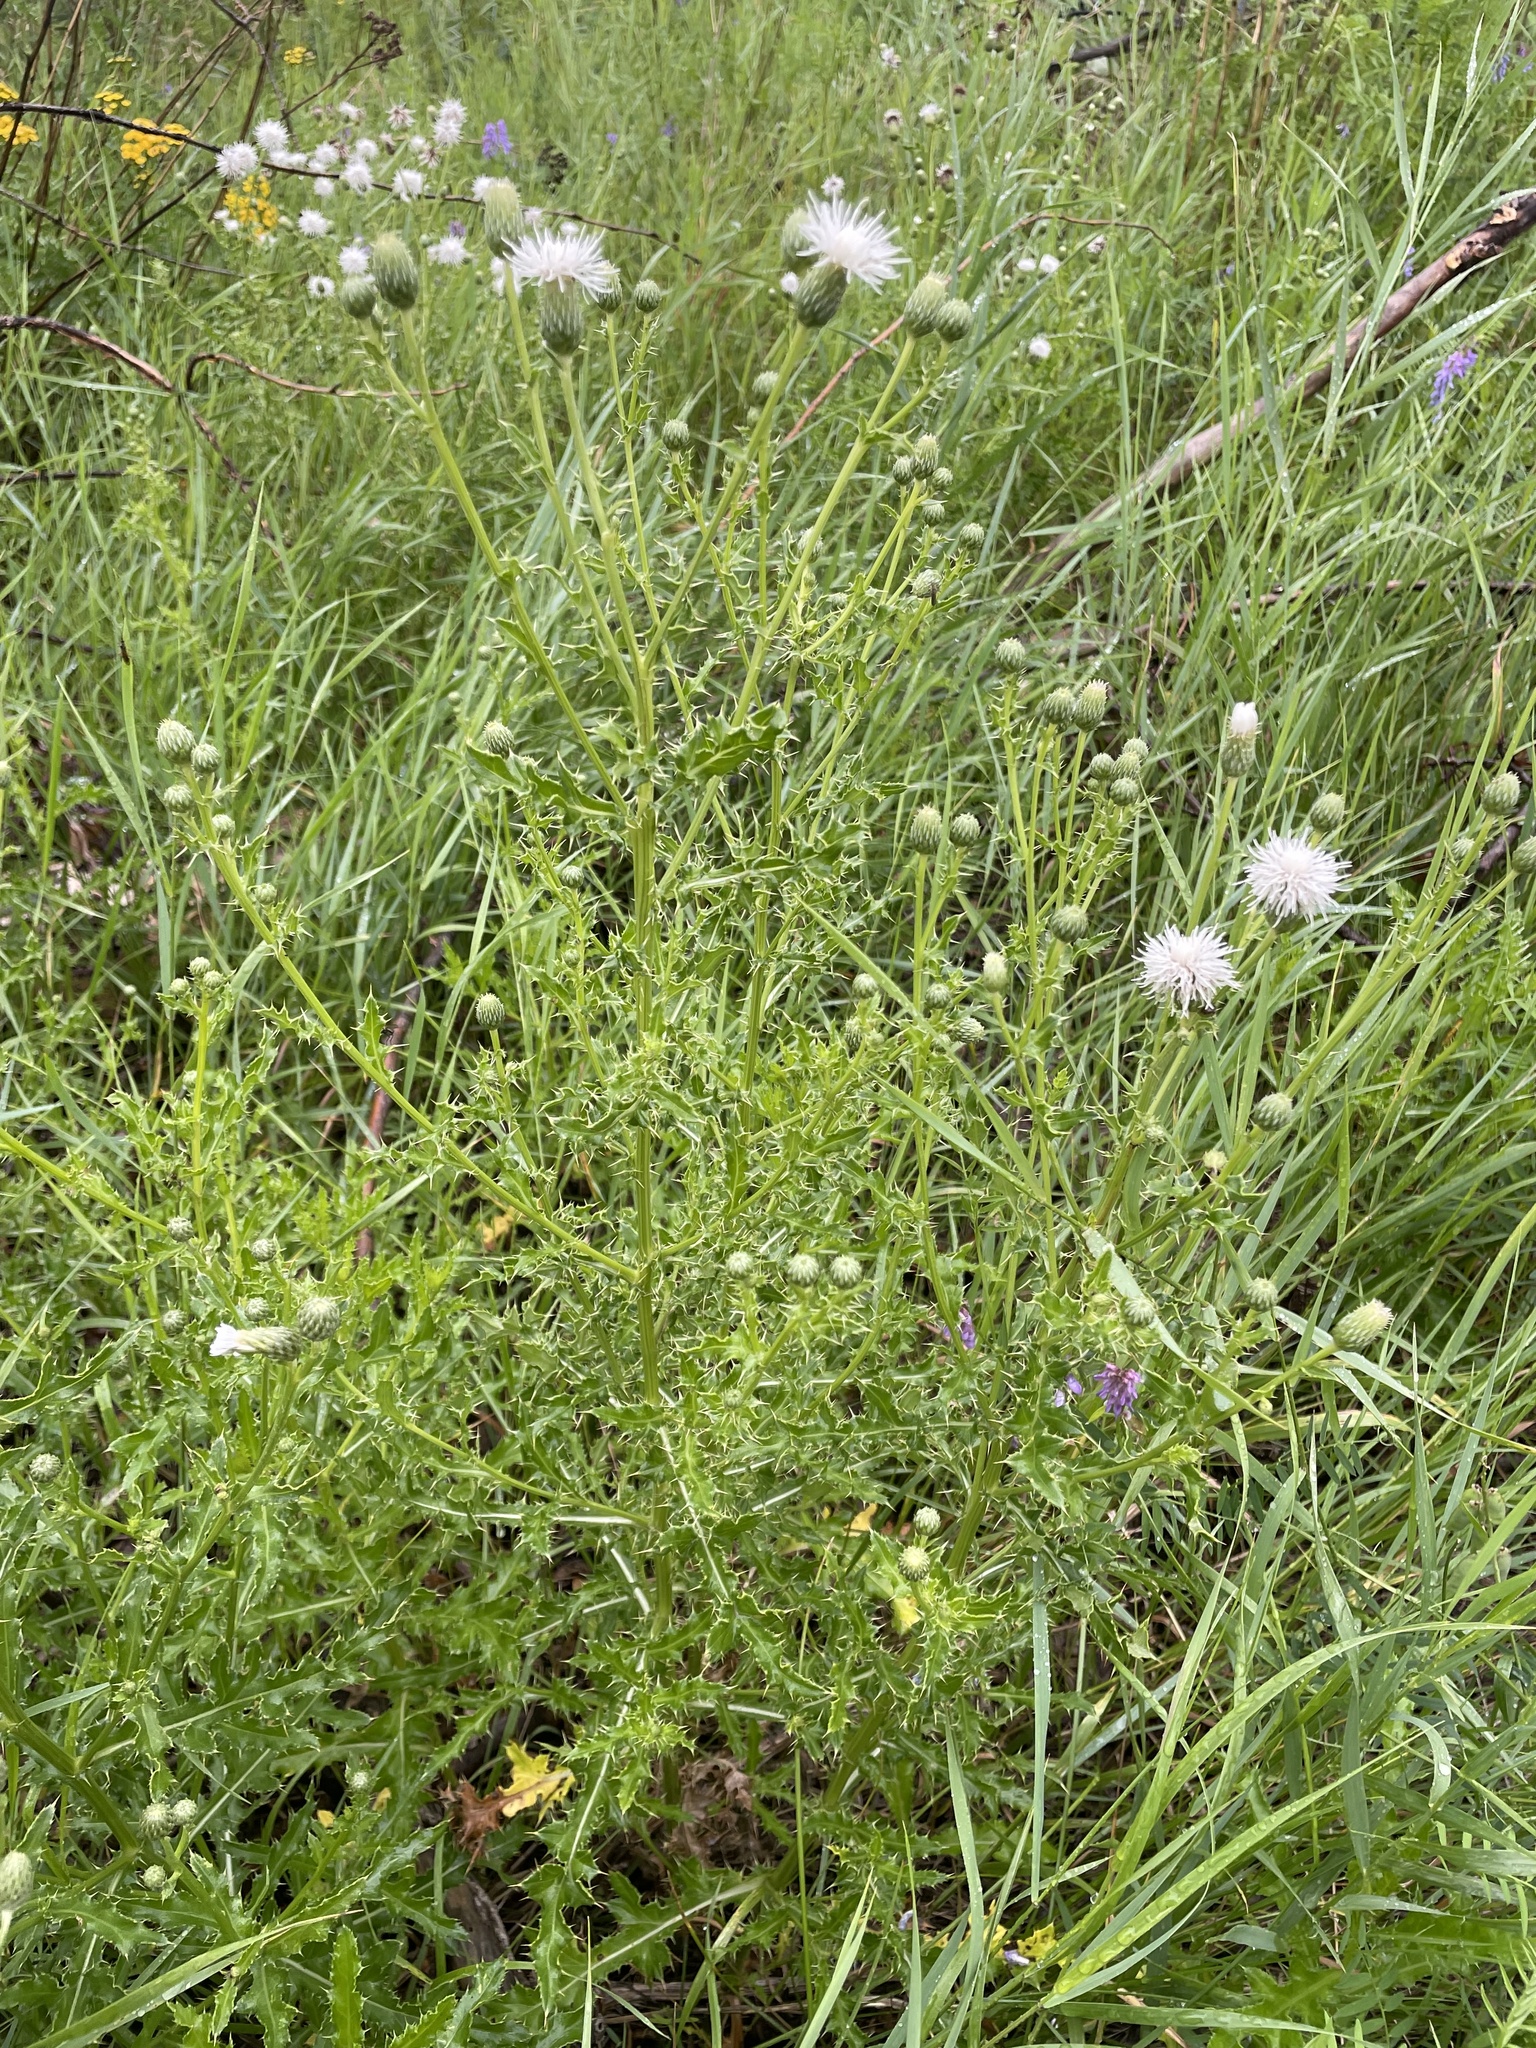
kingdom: Plantae
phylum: Tracheophyta
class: Magnoliopsida
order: Asterales
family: Asteraceae
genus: Cirsium
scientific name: Cirsium arvense
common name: Creeping thistle
